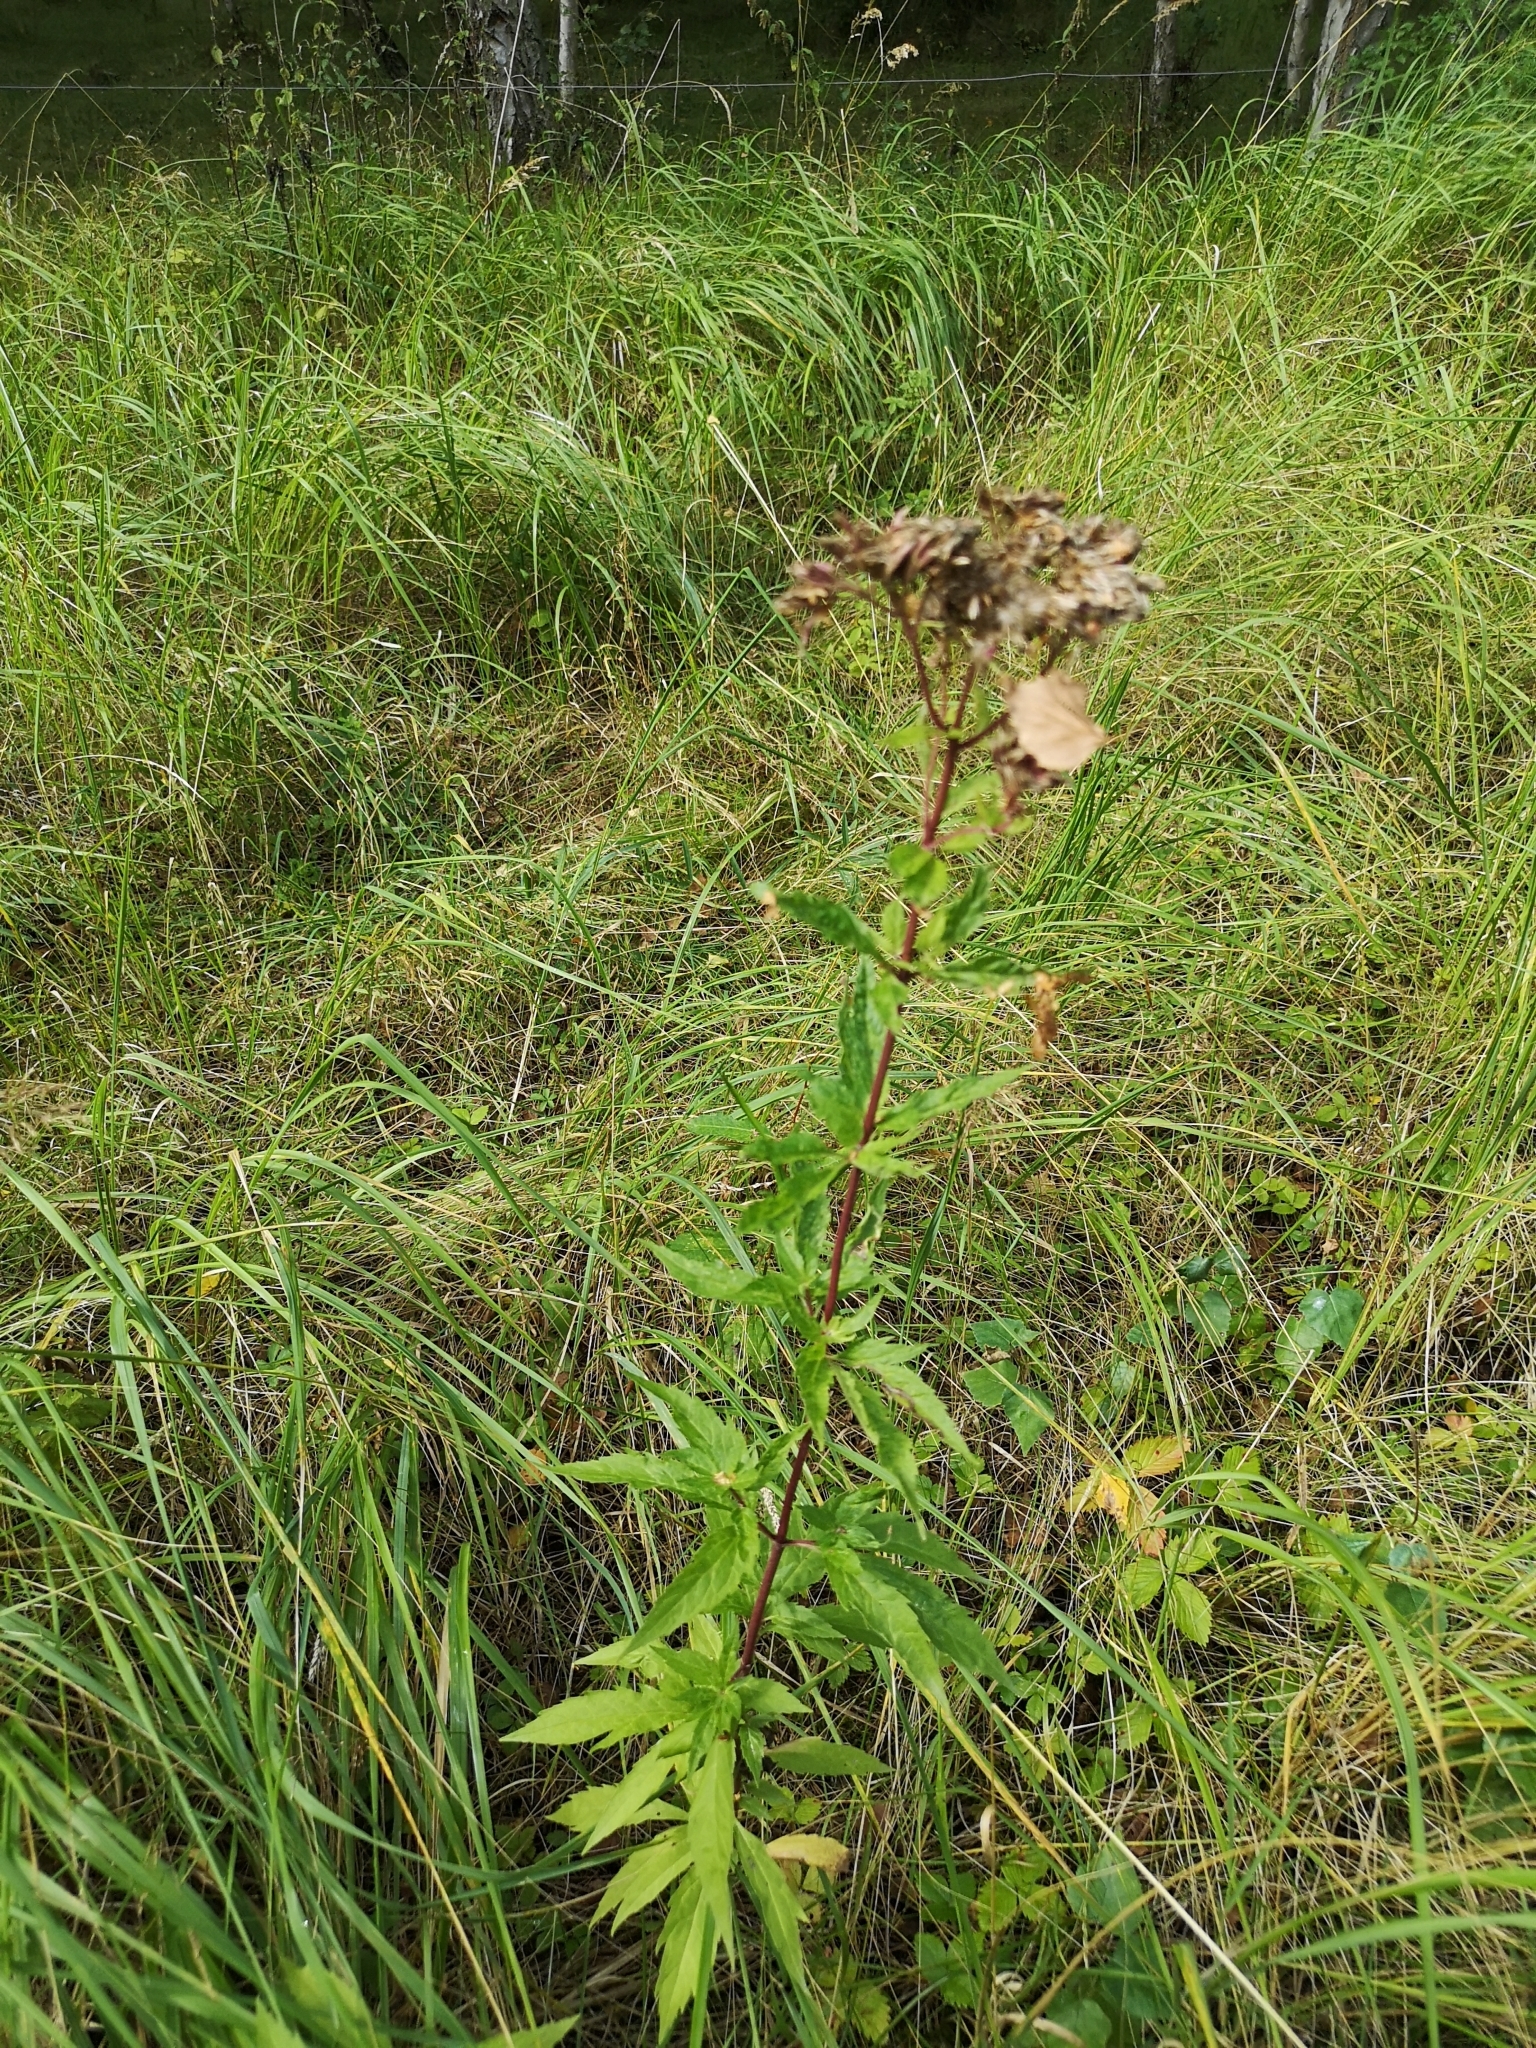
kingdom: Plantae
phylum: Tracheophyta
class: Magnoliopsida
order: Asterales
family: Asteraceae
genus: Eupatorium
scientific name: Eupatorium cannabinum
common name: Hemp-agrimony
